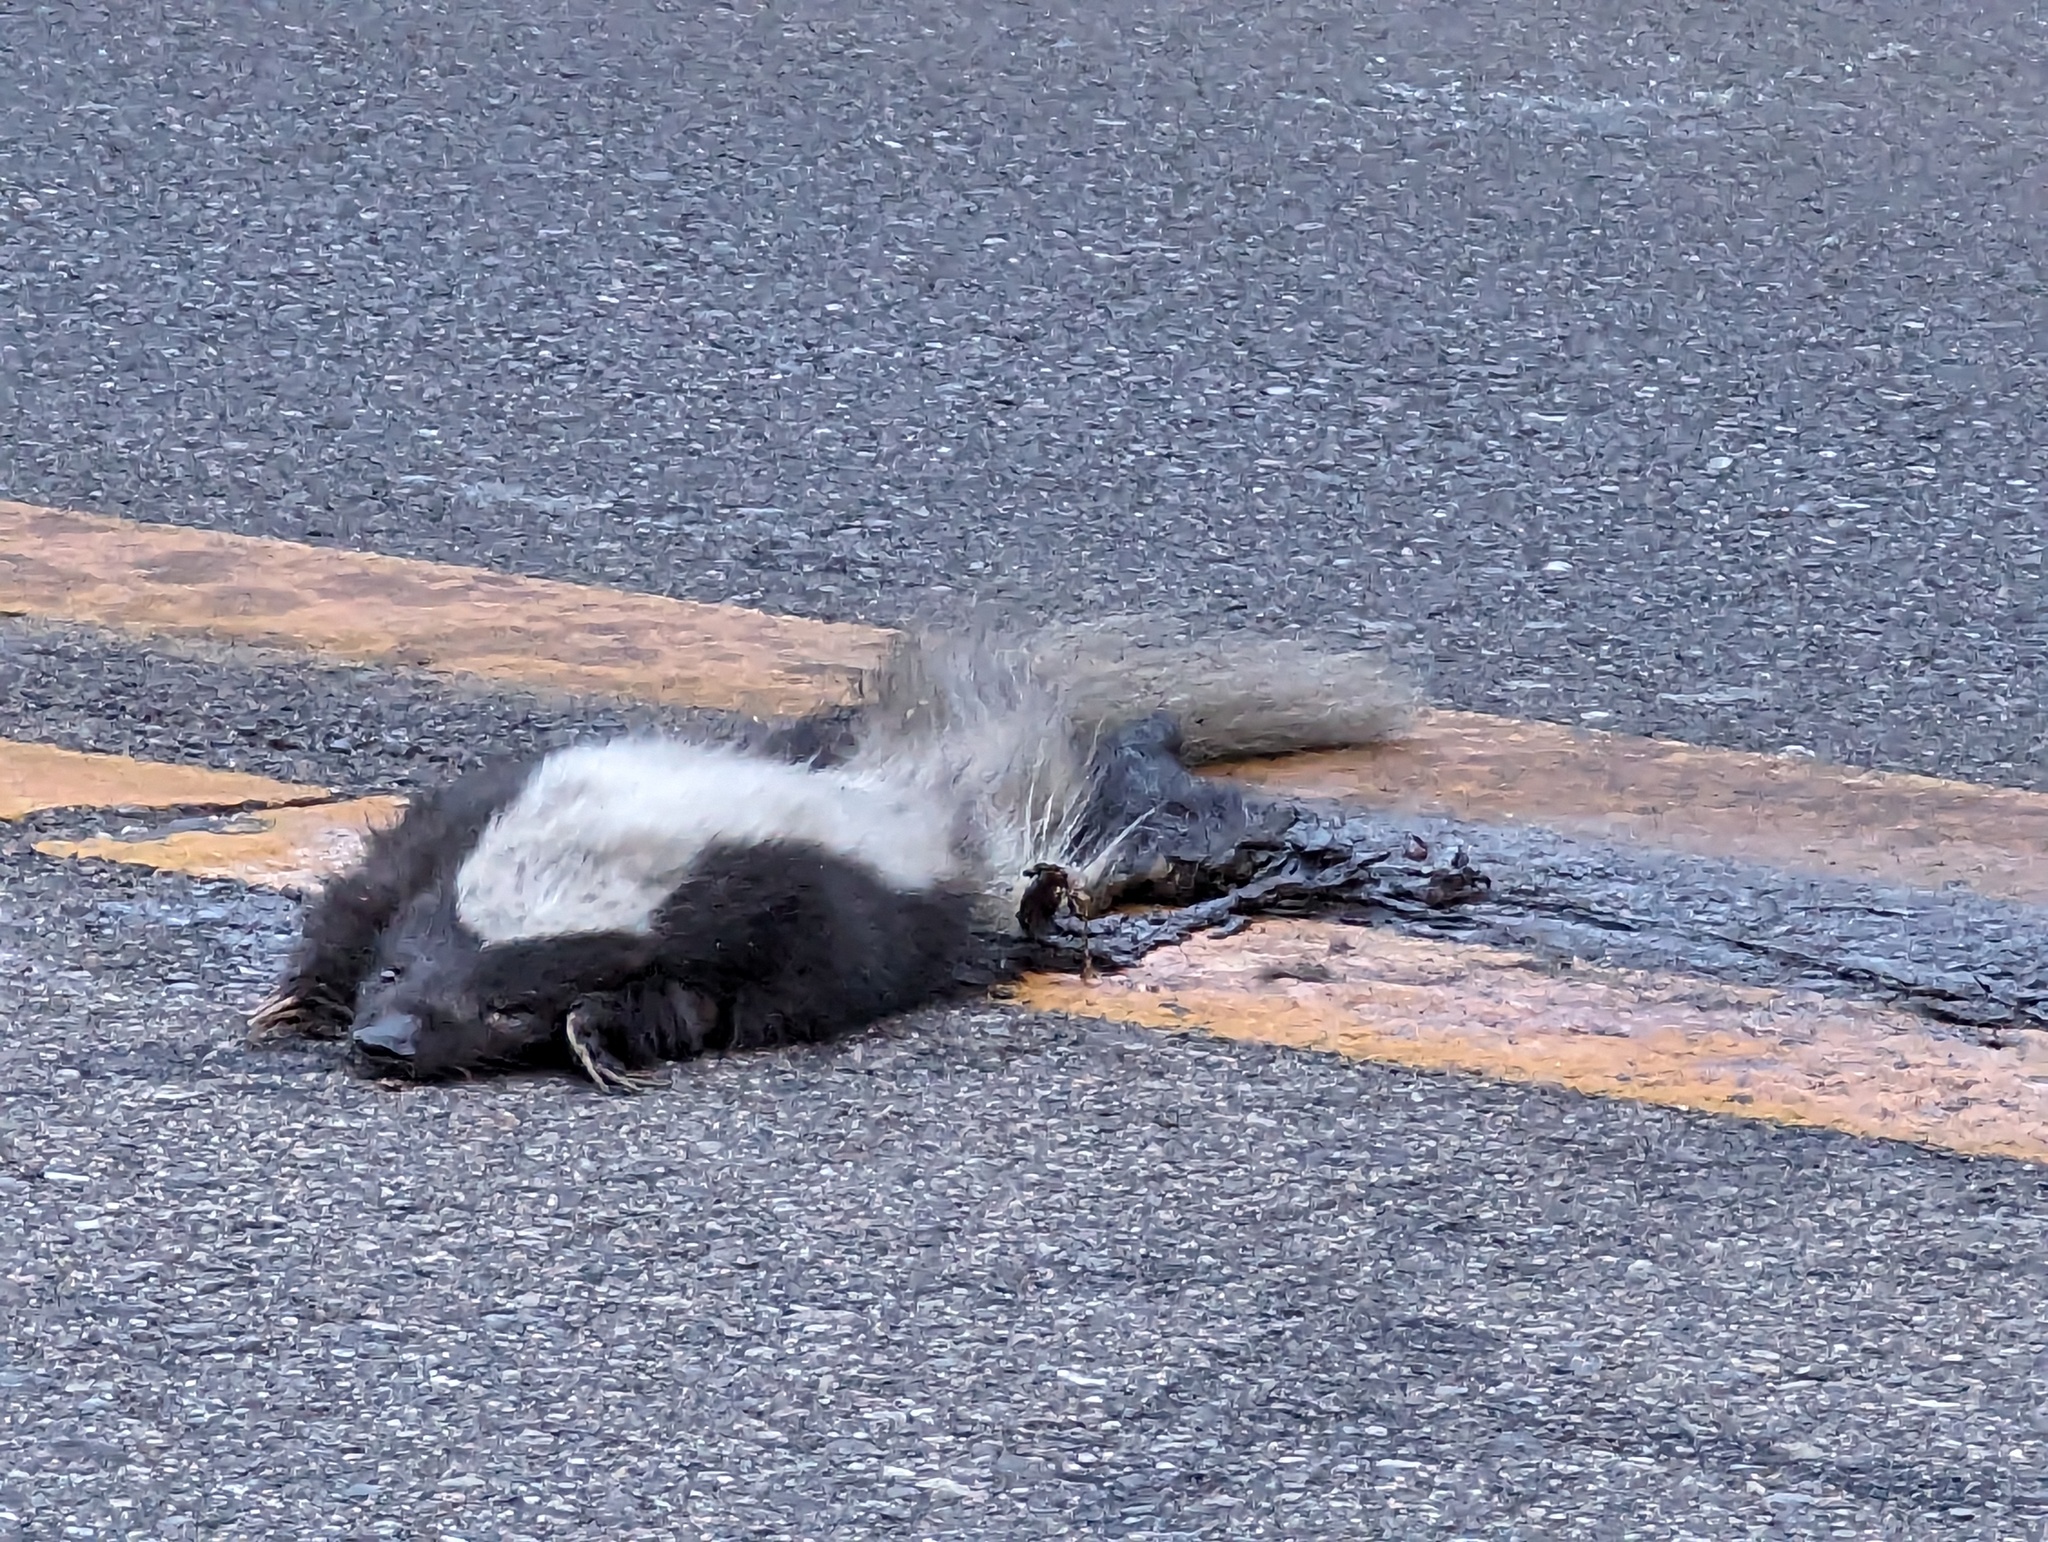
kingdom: Animalia
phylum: Chordata
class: Mammalia
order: Carnivora
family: Mephitidae
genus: Conepatus
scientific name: Conepatus leuconotus
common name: Eastern hog-nosed skunk
